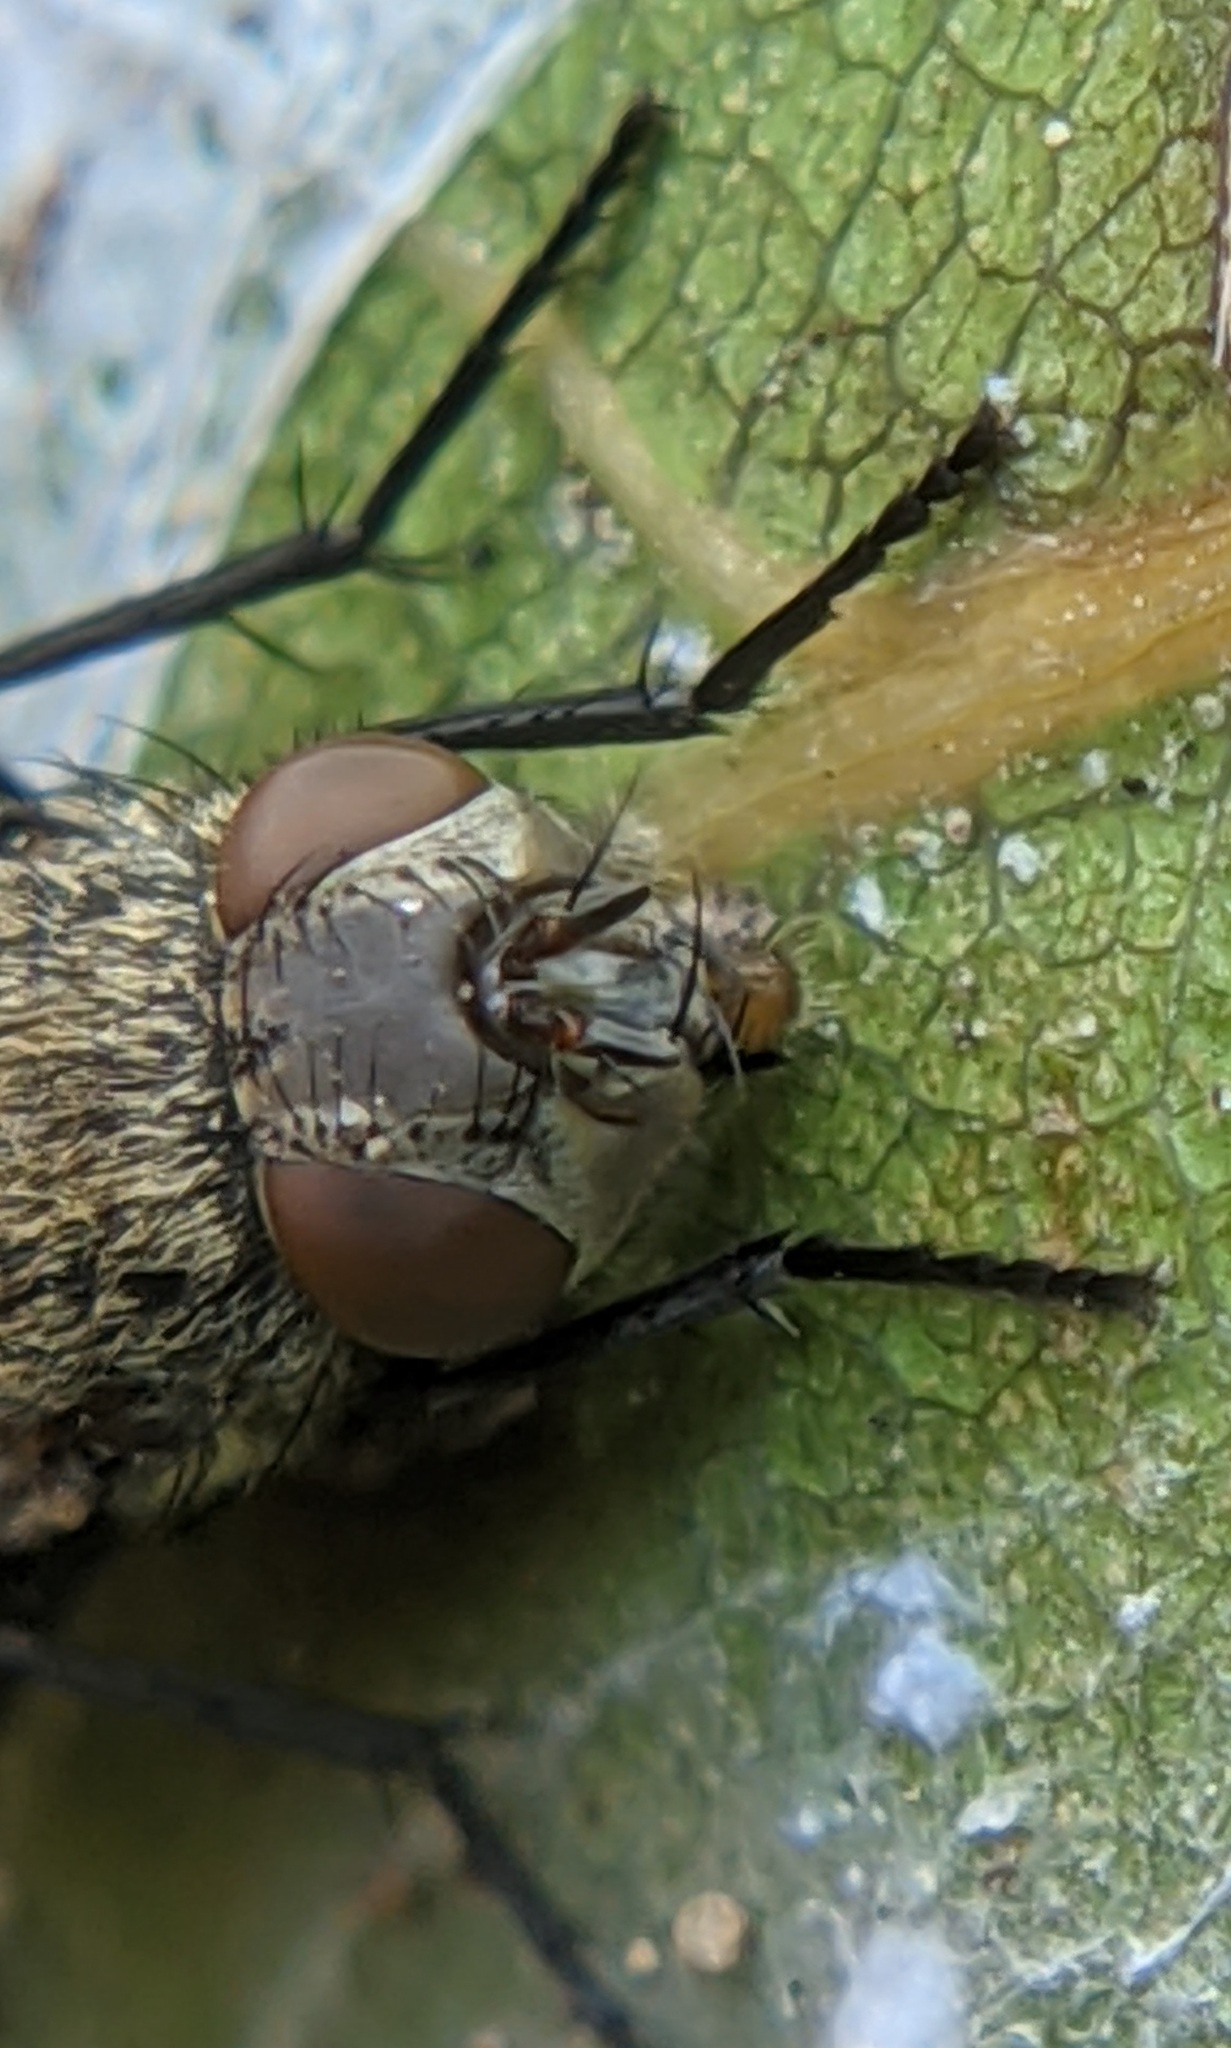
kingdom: Animalia
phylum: Arthropoda
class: Insecta
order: Diptera
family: Polleniidae
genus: Pollenia
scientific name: Pollenia
